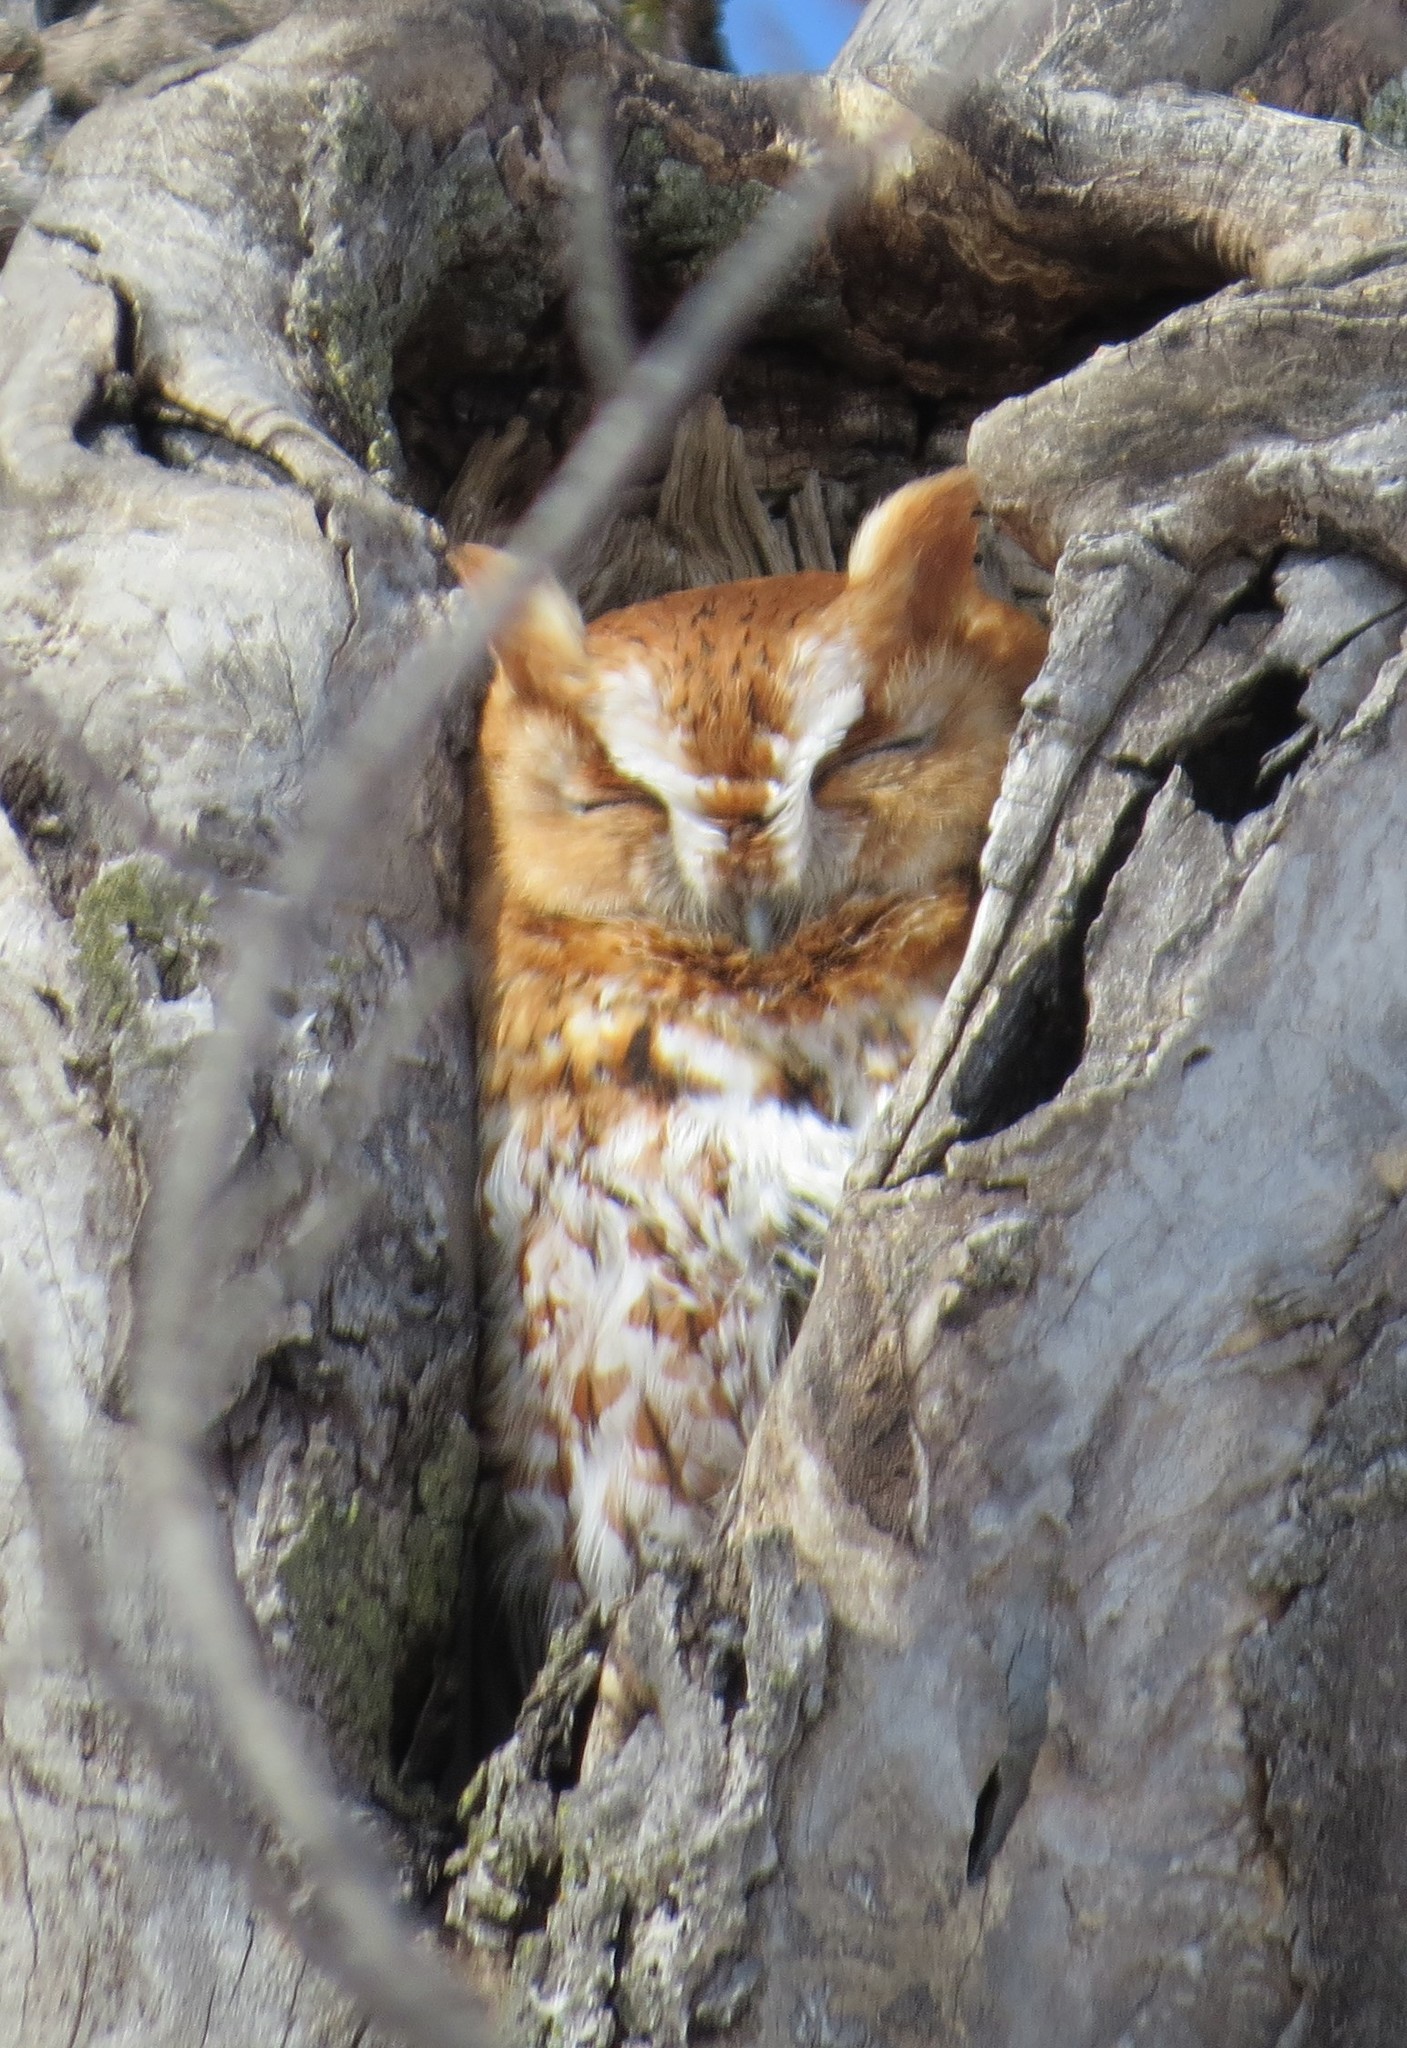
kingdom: Animalia
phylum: Chordata
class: Aves
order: Strigiformes
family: Strigidae
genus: Megascops
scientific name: Megascops asio
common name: Eastern screech-owl
